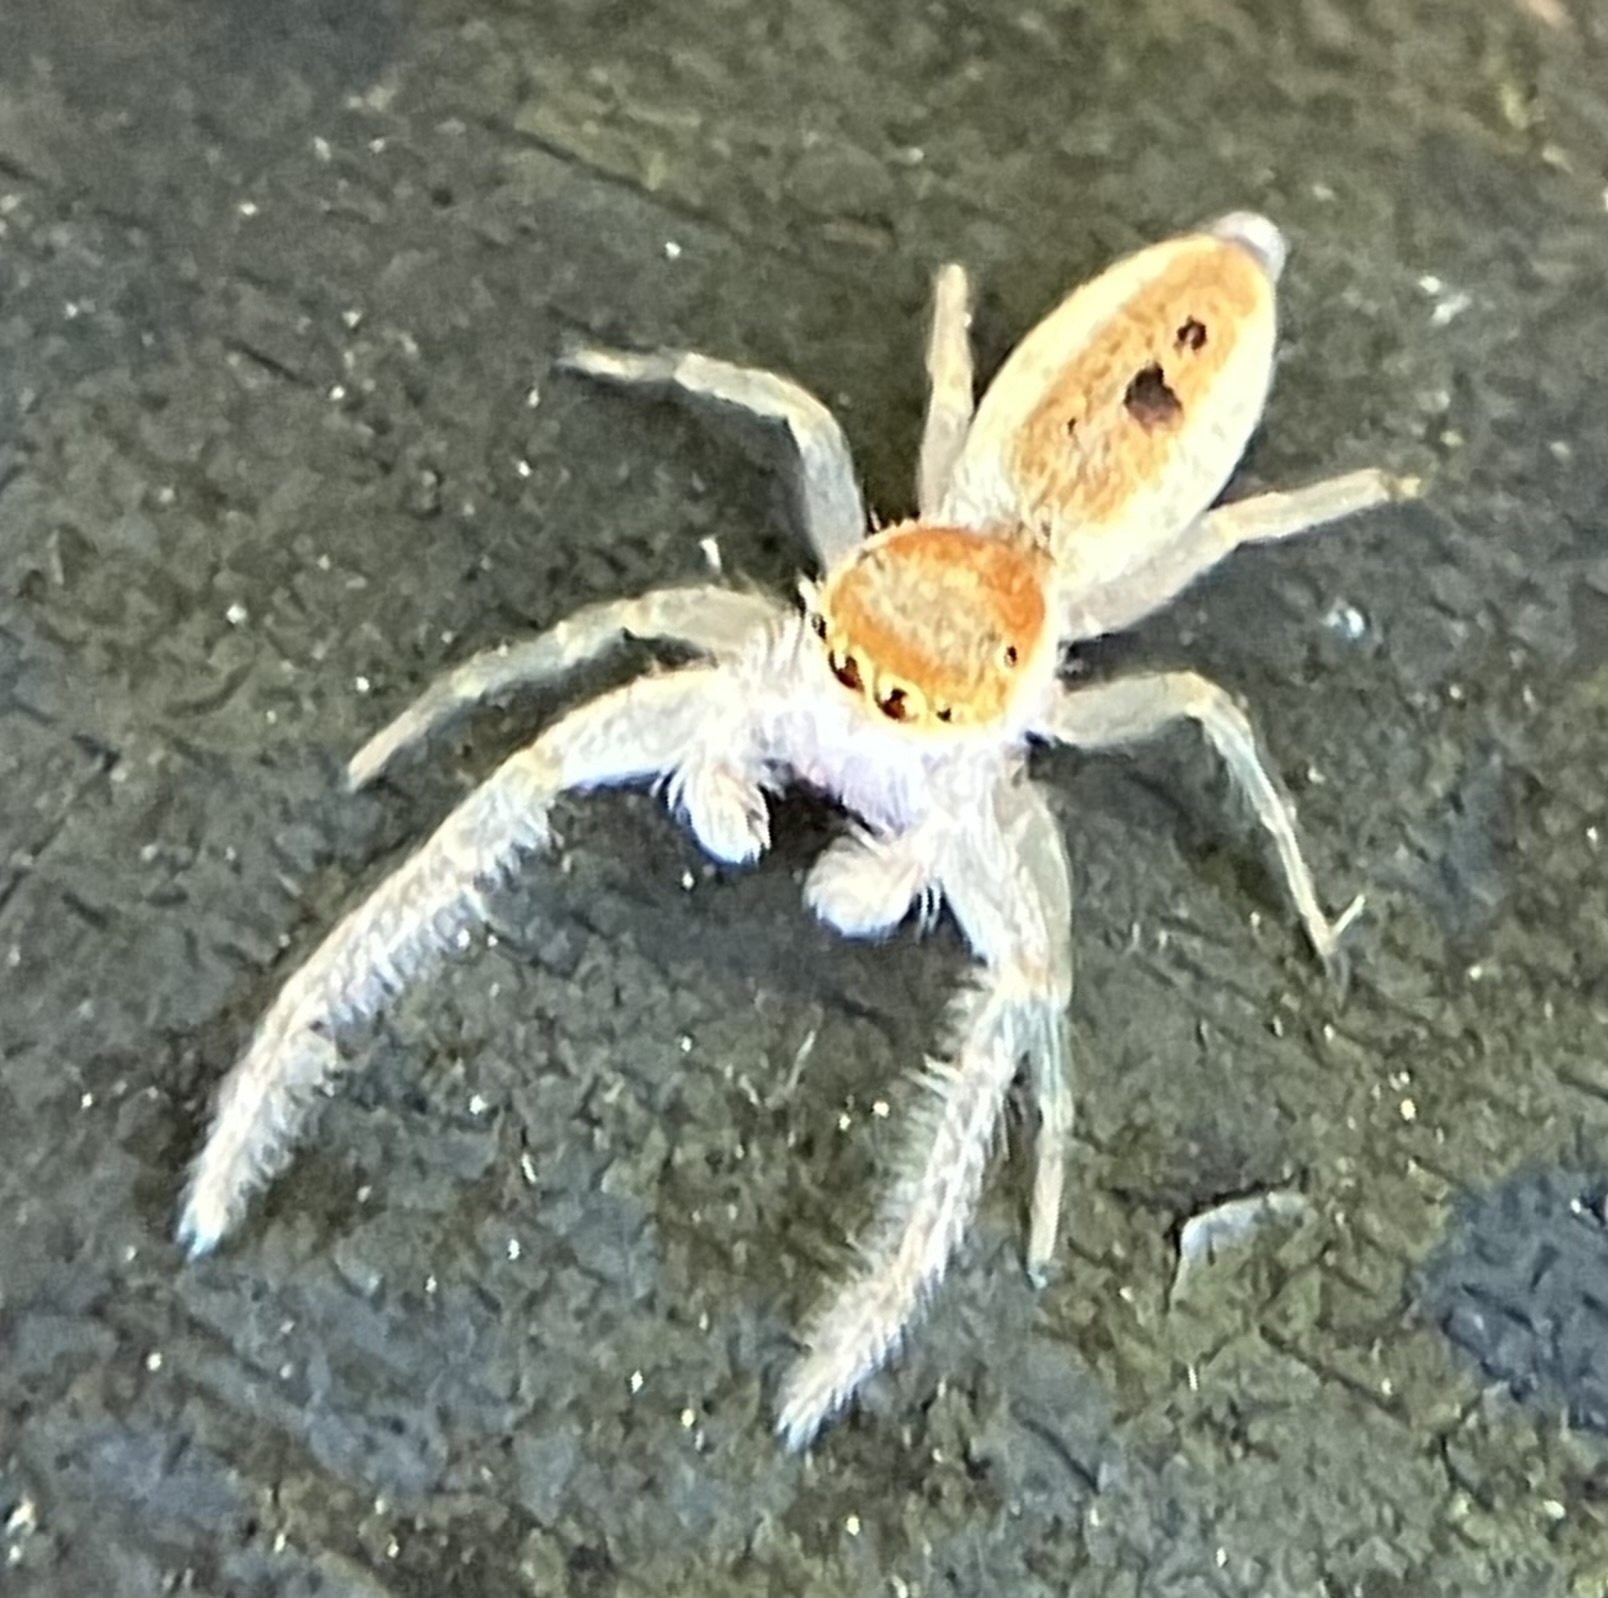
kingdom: Animalia
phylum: Arthropoda
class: Arachnida
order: Araneae
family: Salticidae
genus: Hentzia
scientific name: Hentzia mitrata
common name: White-jawed jumping spider
